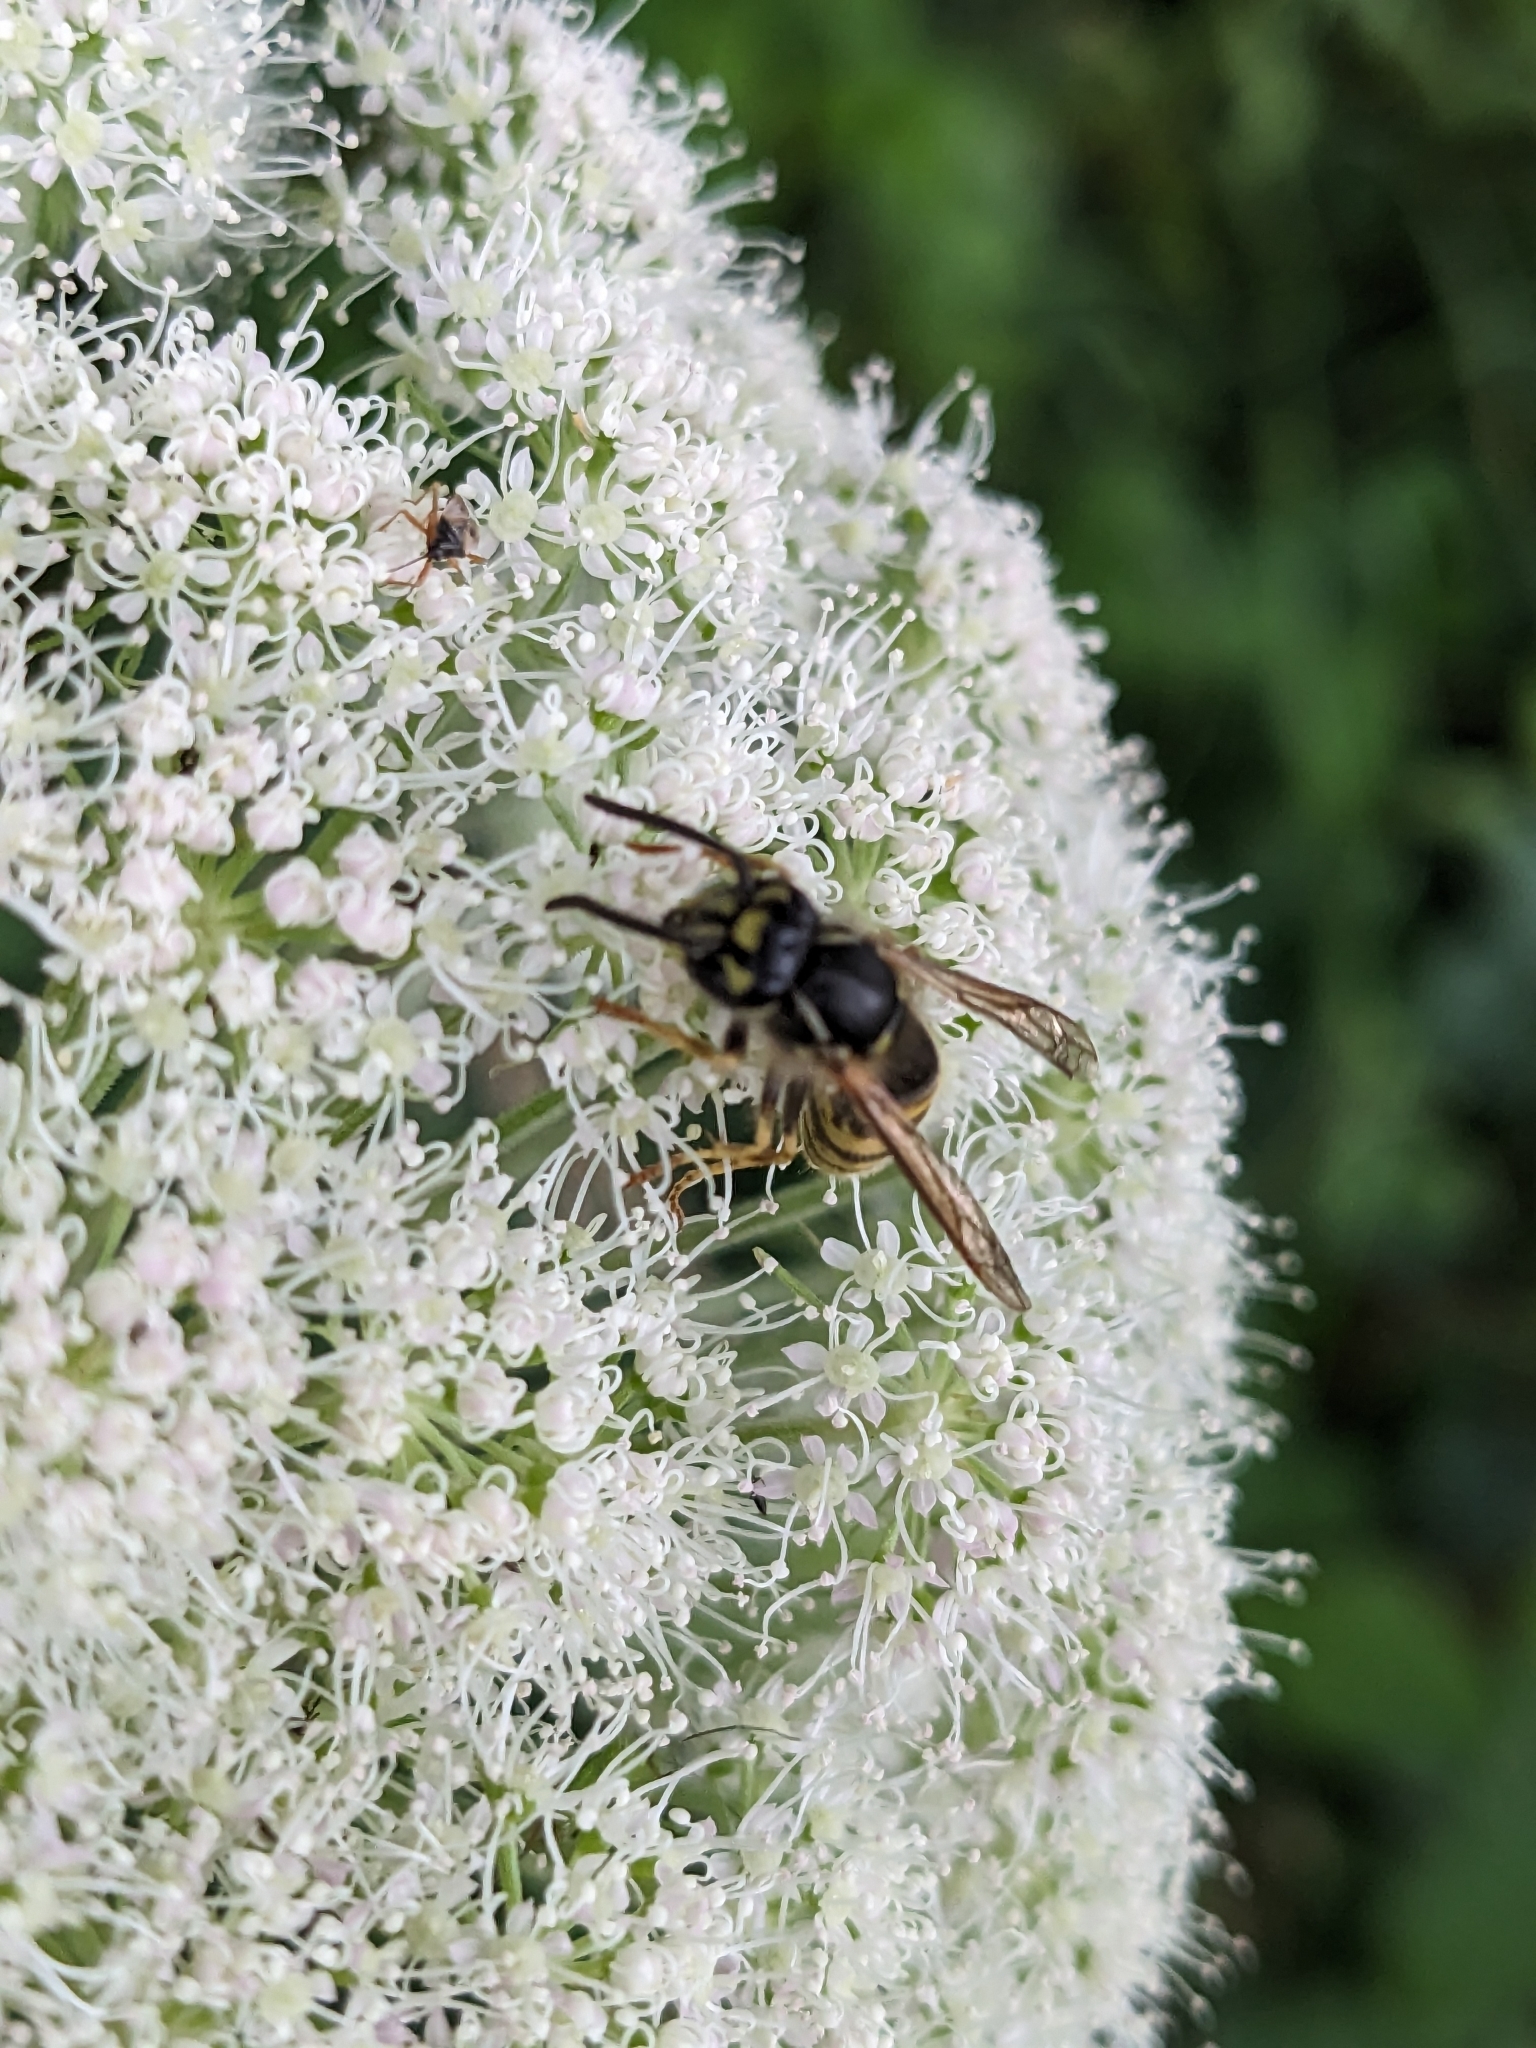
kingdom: Animalia
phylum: Arthropoda
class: Insecta
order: Hymenoptera
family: Vespidae
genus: Vespula
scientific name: Vespula vulgaris
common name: Common wasp
